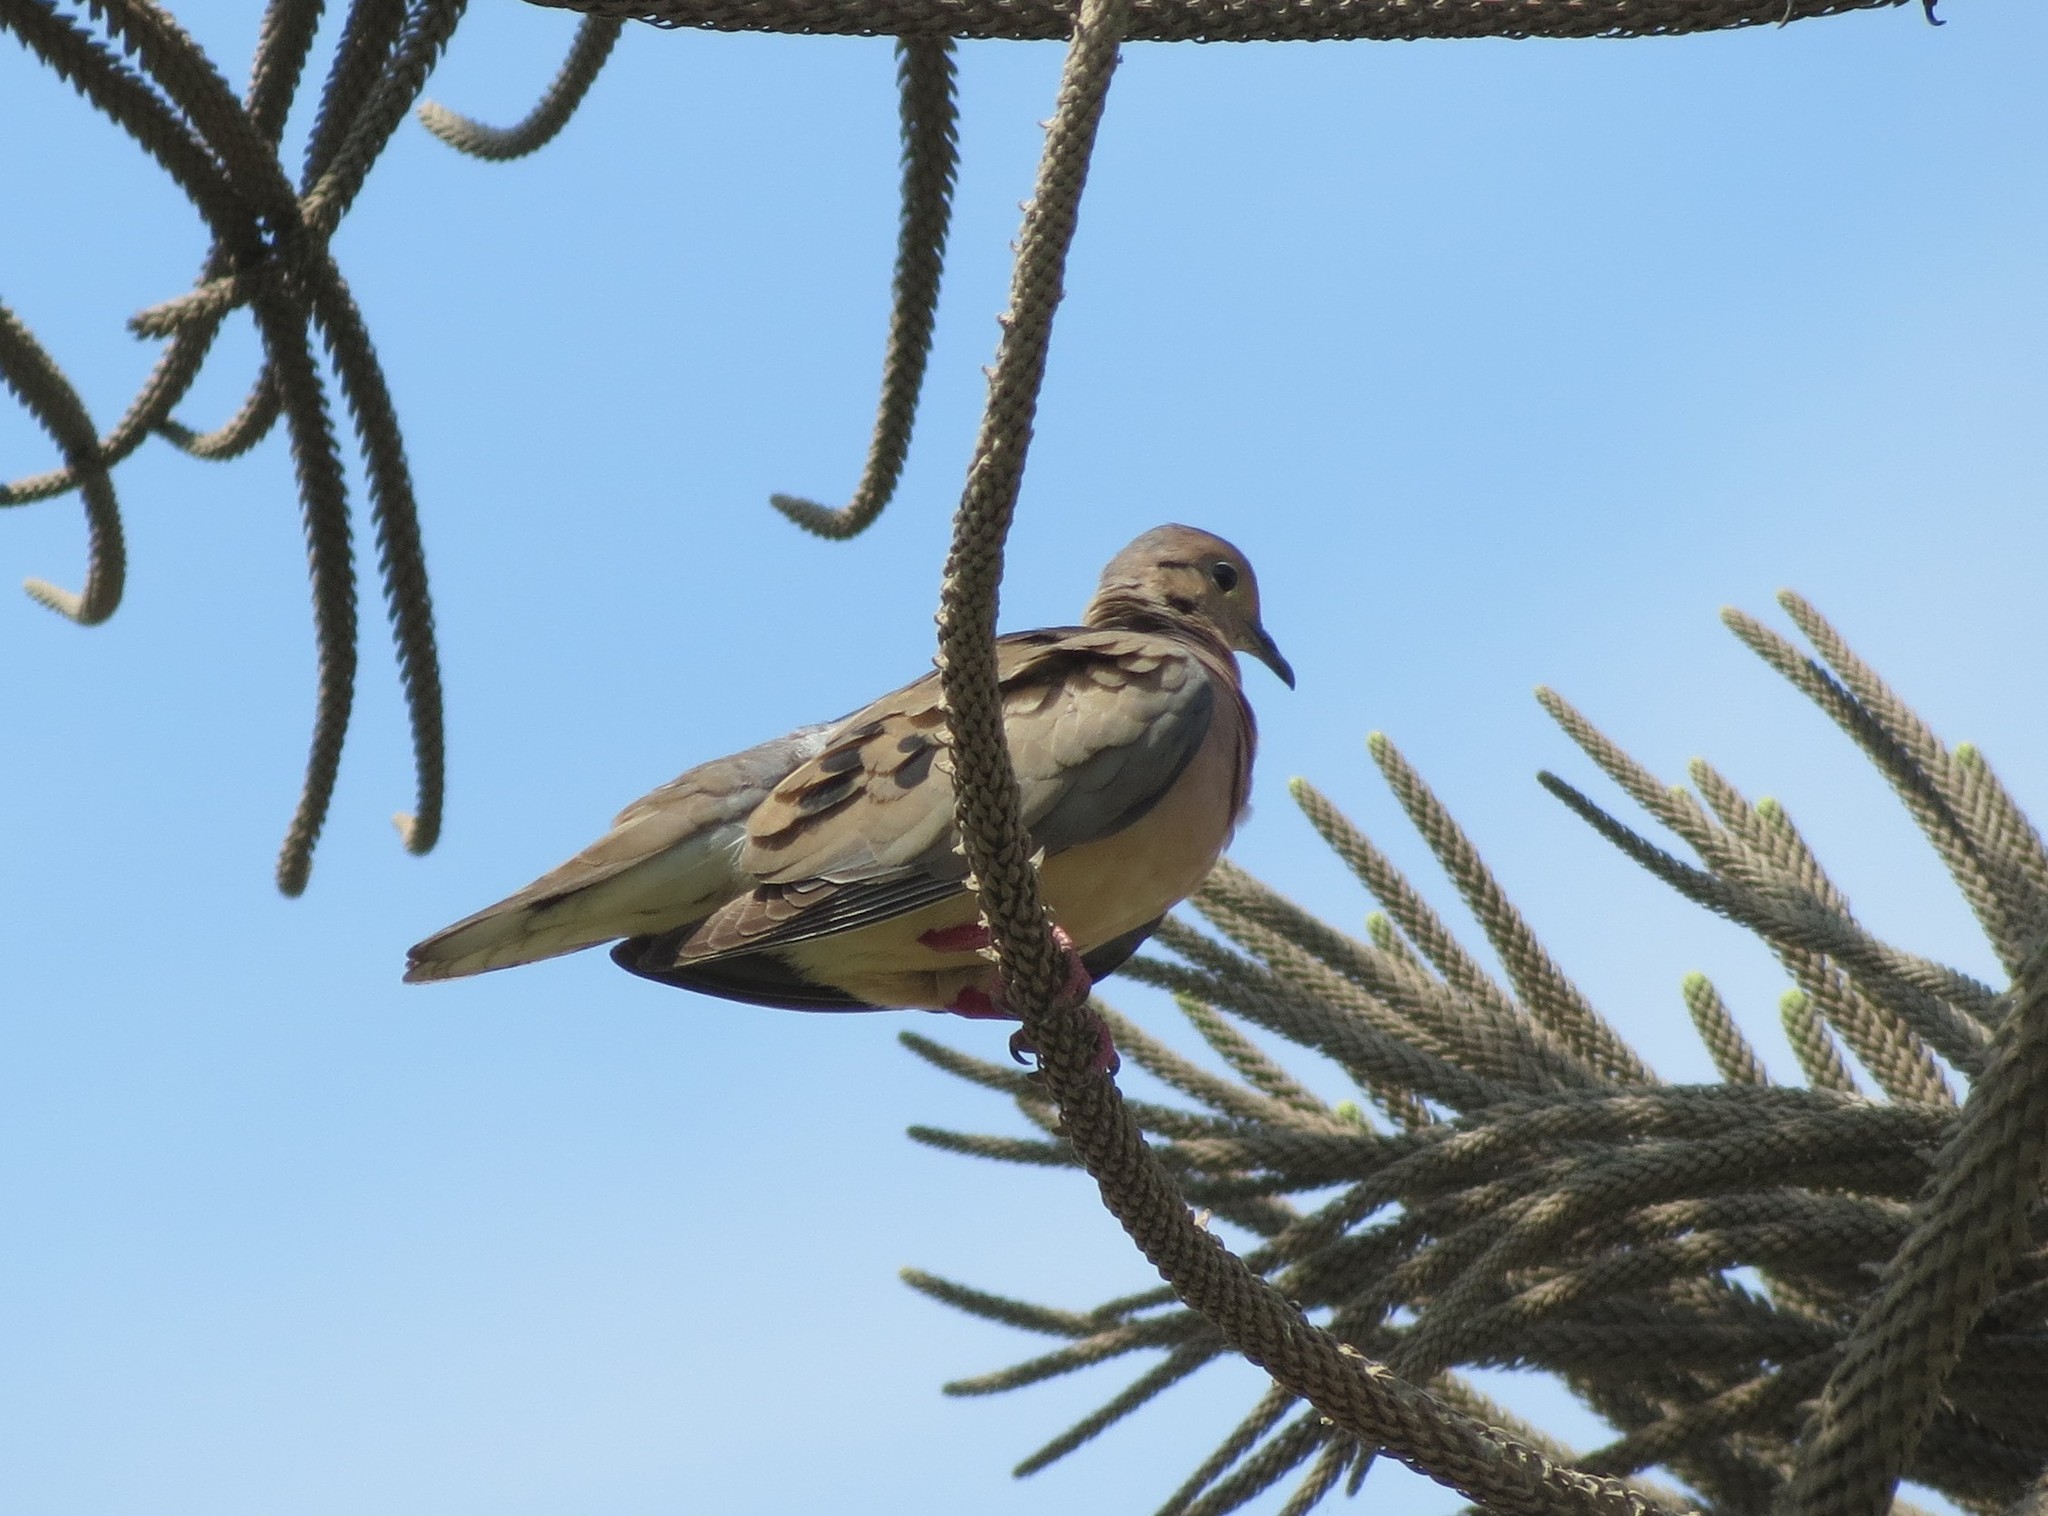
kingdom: Animalia
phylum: Chordata
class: Aves
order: Columbiformes
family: Columbidae
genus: Zenaida
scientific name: Zenaida auriculata
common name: Eared dove
